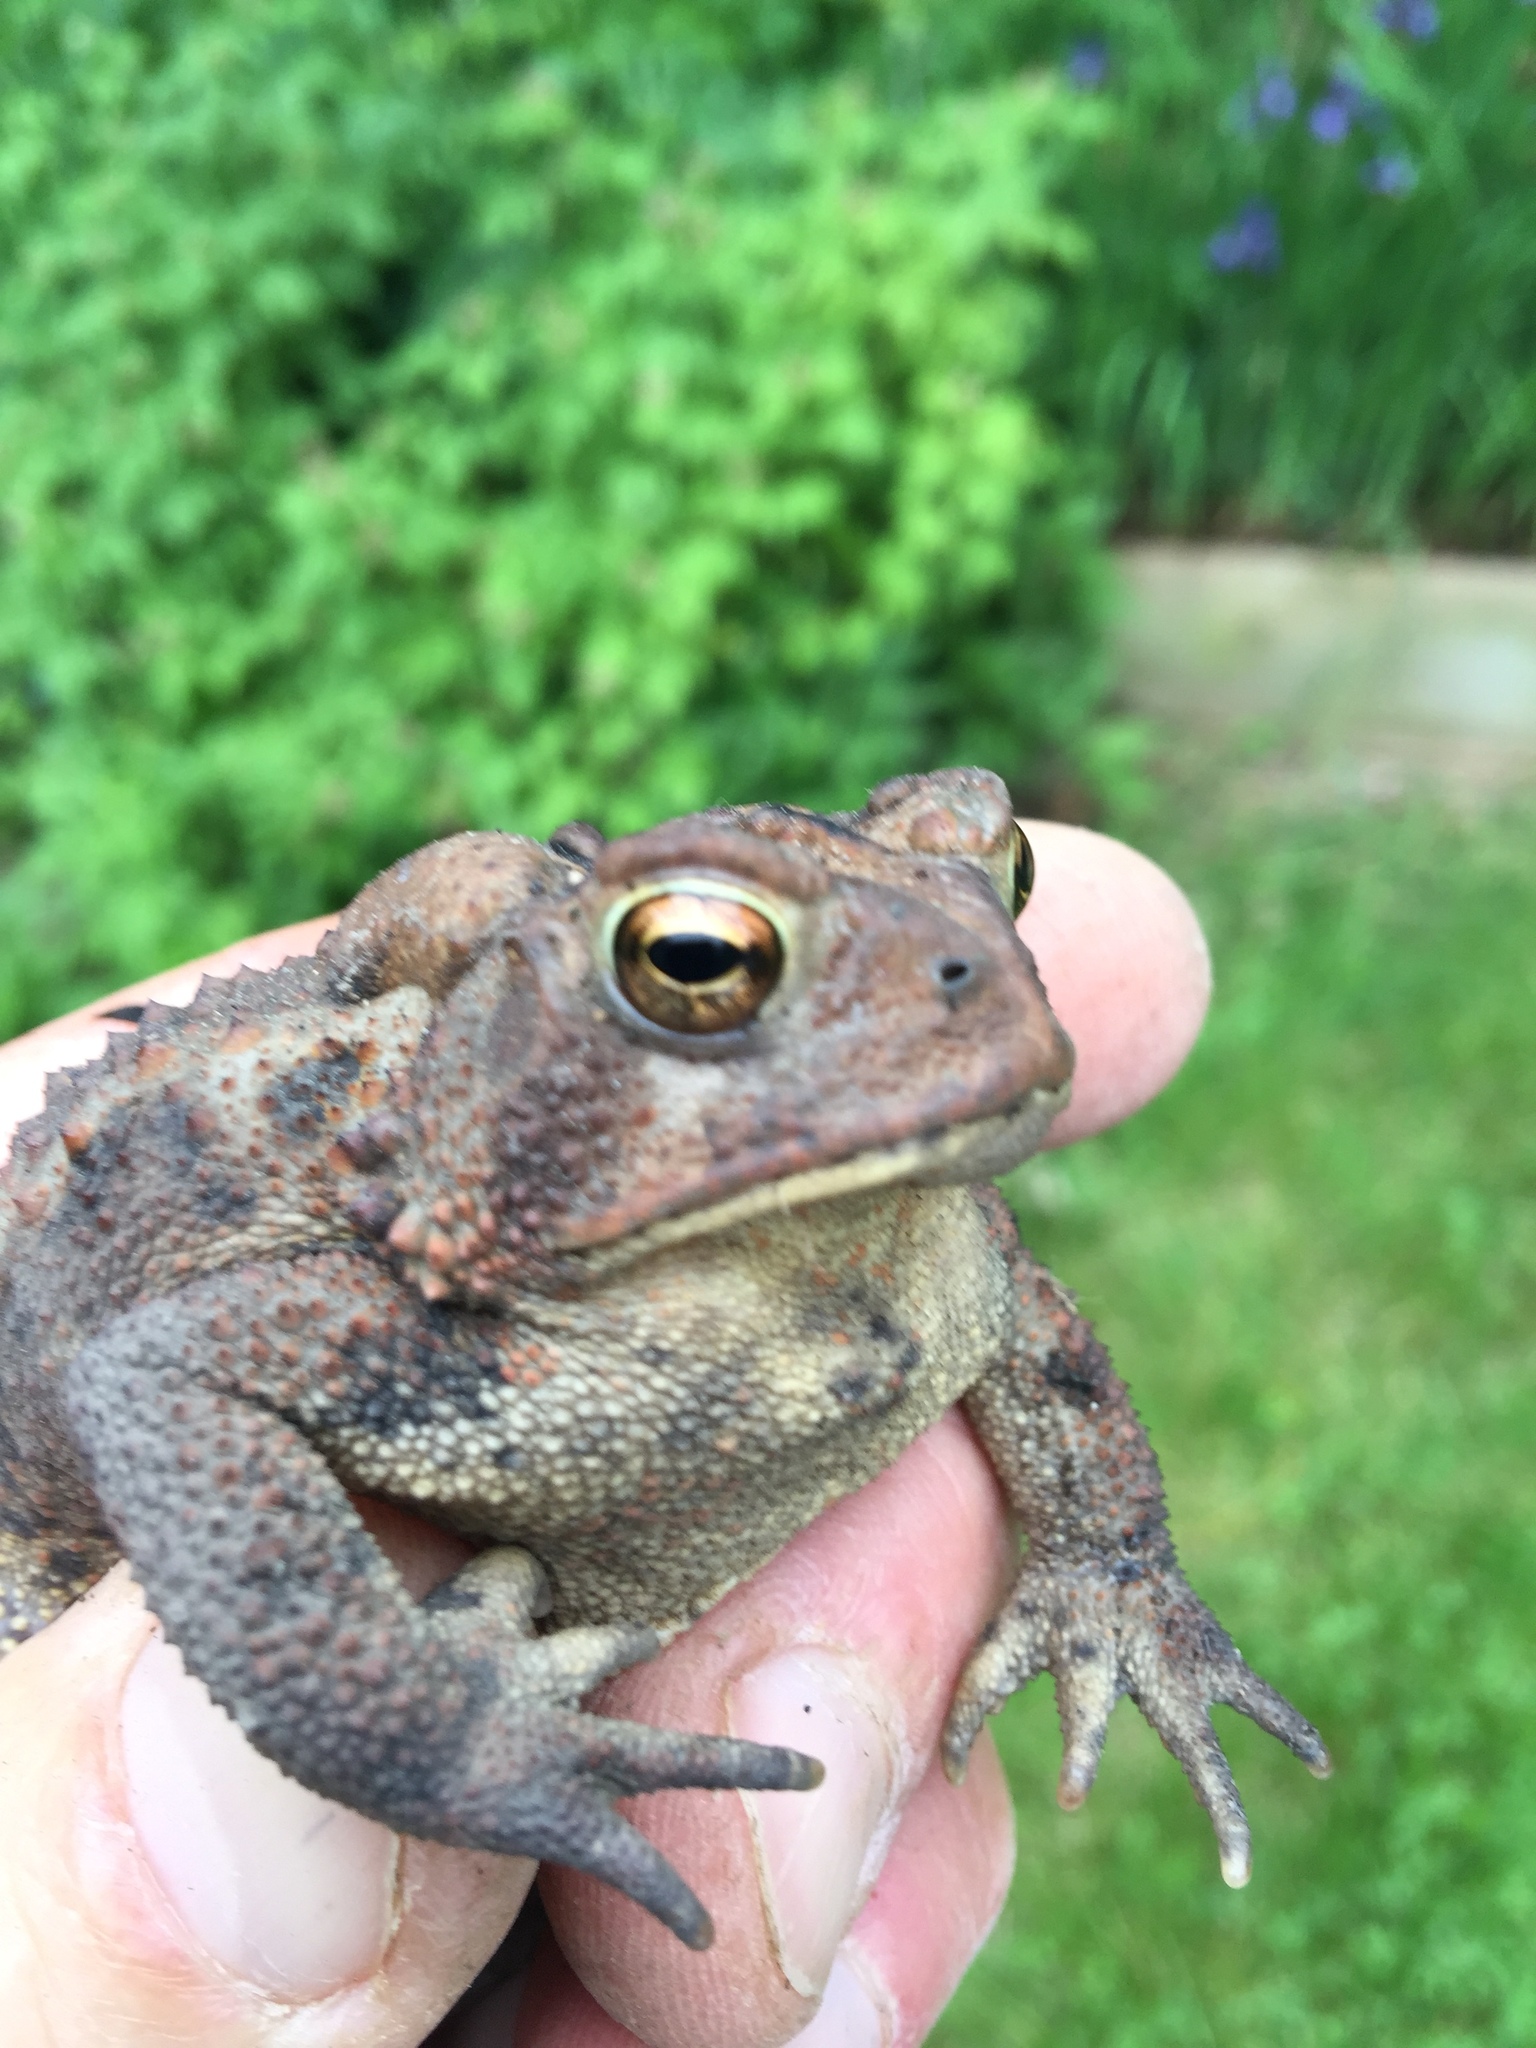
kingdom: Animalia
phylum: Chordata
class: Amphibia
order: Anura
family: Bufonidae
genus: Anaxyrus
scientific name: Anaxyrus americanus
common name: American toad
